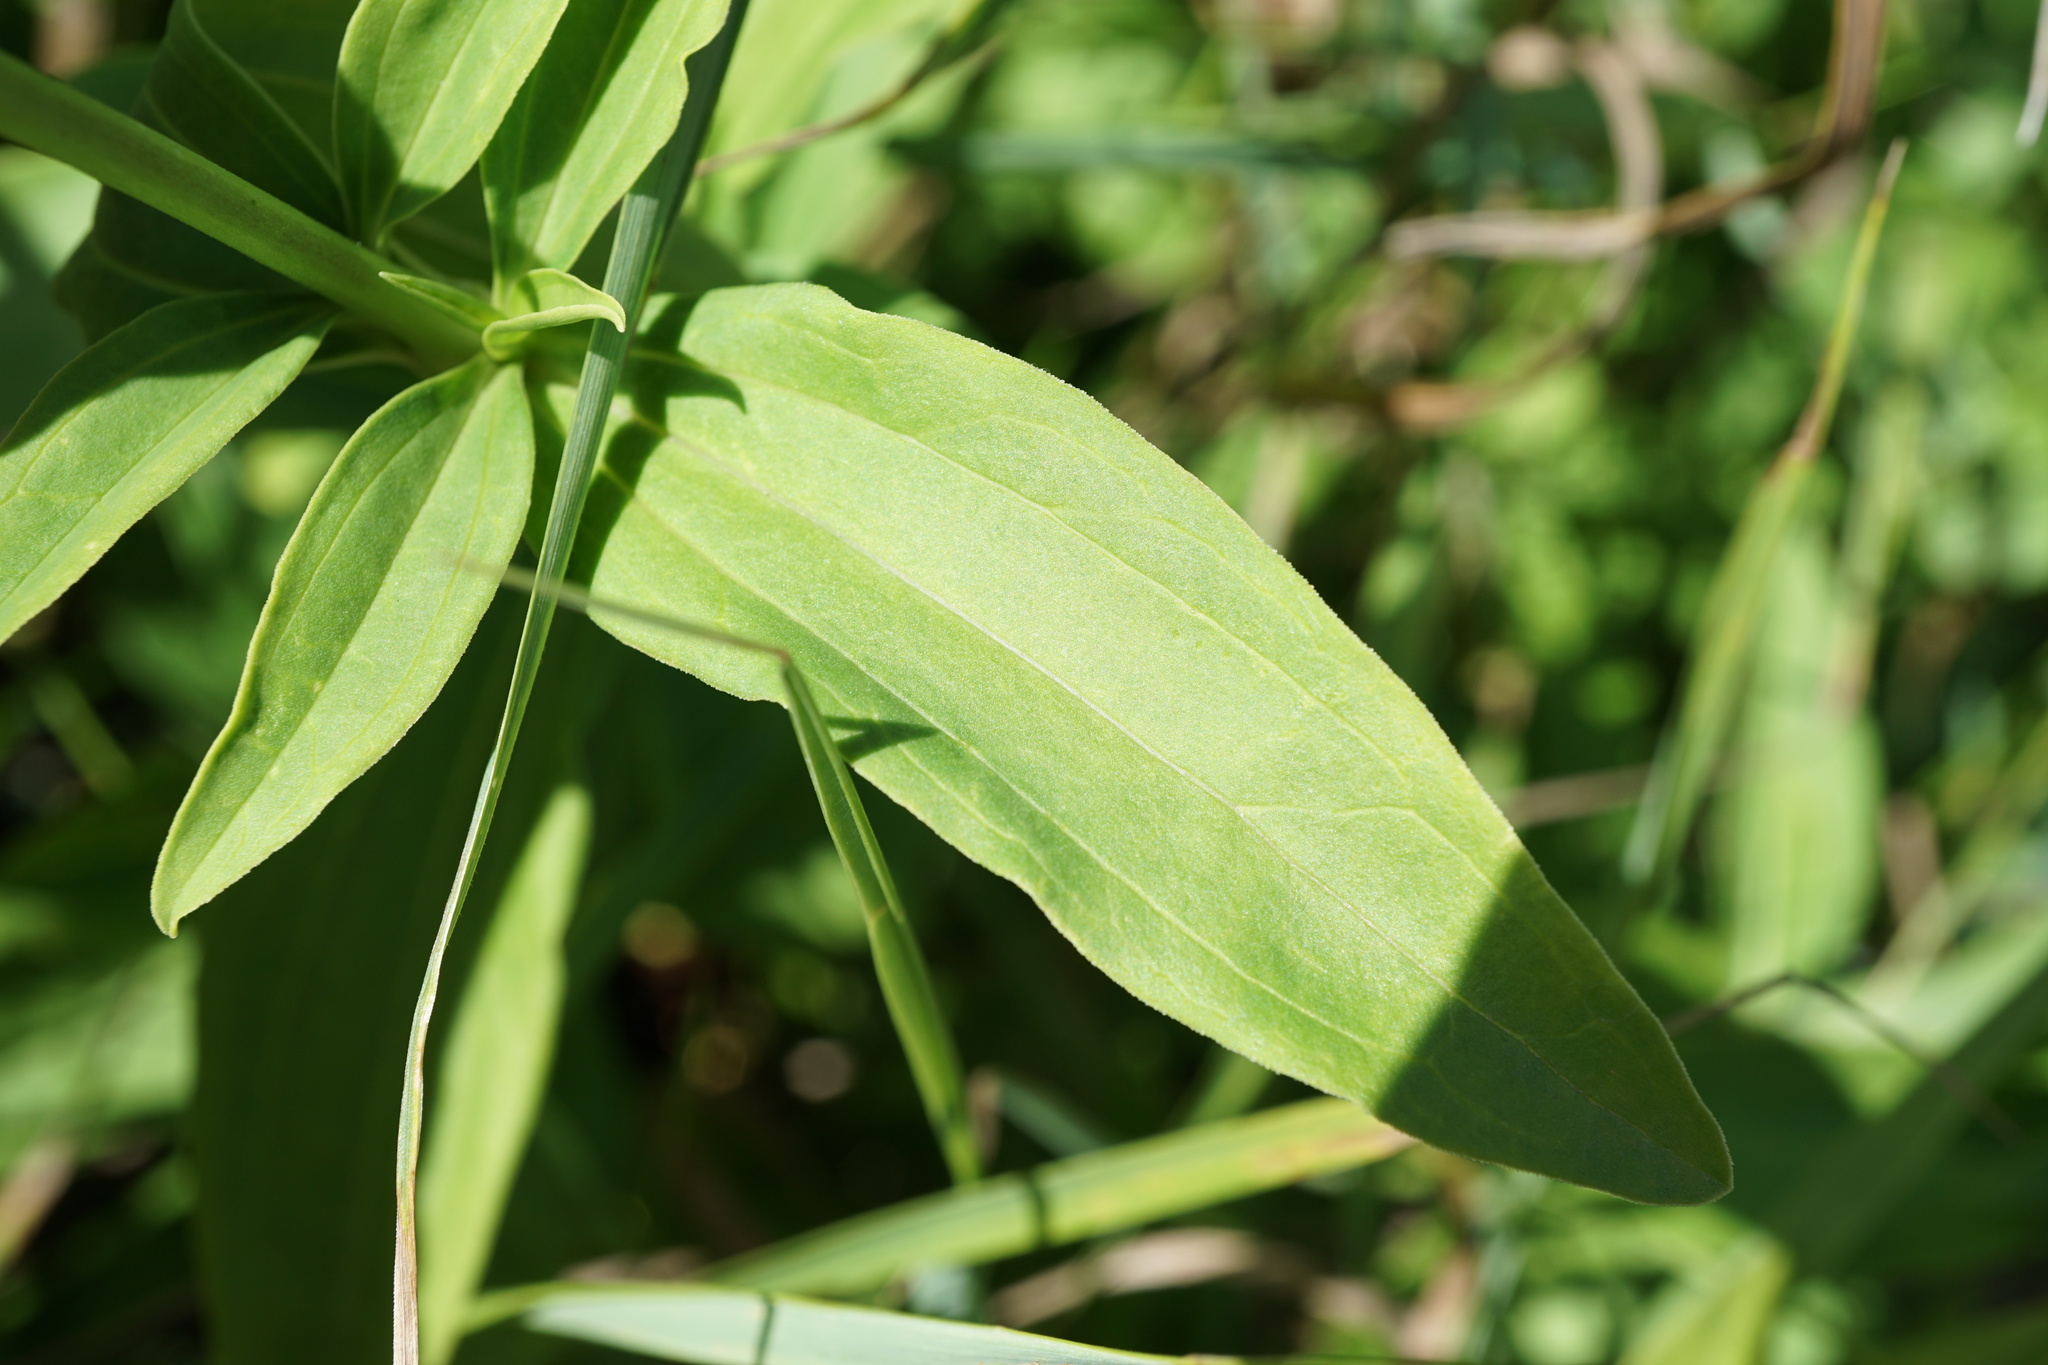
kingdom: Plantae
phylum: Tracheophyta
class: Magnoliopsida
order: Caryophyllales
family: Caryophyllaceae
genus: Saponaria
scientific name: Saponaria officinalis
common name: Soapwort
